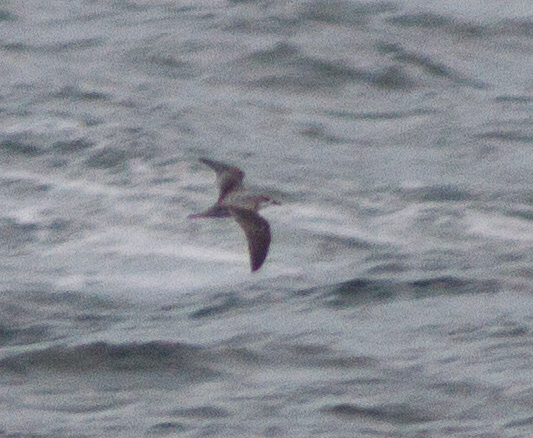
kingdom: Animalia
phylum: Chordata
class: Aves
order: Procellariiformes
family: Procellariidae
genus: Pterodroma
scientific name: Pterodroma cookii
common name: Cook's petrel
